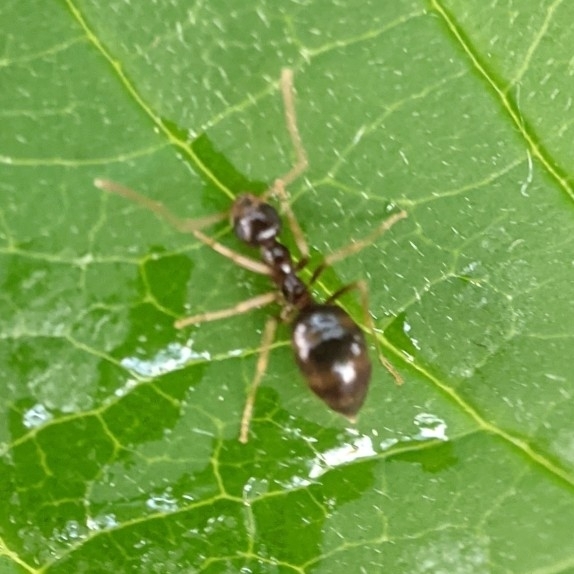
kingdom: Animalia
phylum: Arthropoda
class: Insecta
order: Hymenoptera
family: Formicidae
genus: Prenolepis
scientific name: Prenolepis imparis
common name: Small honey ant
